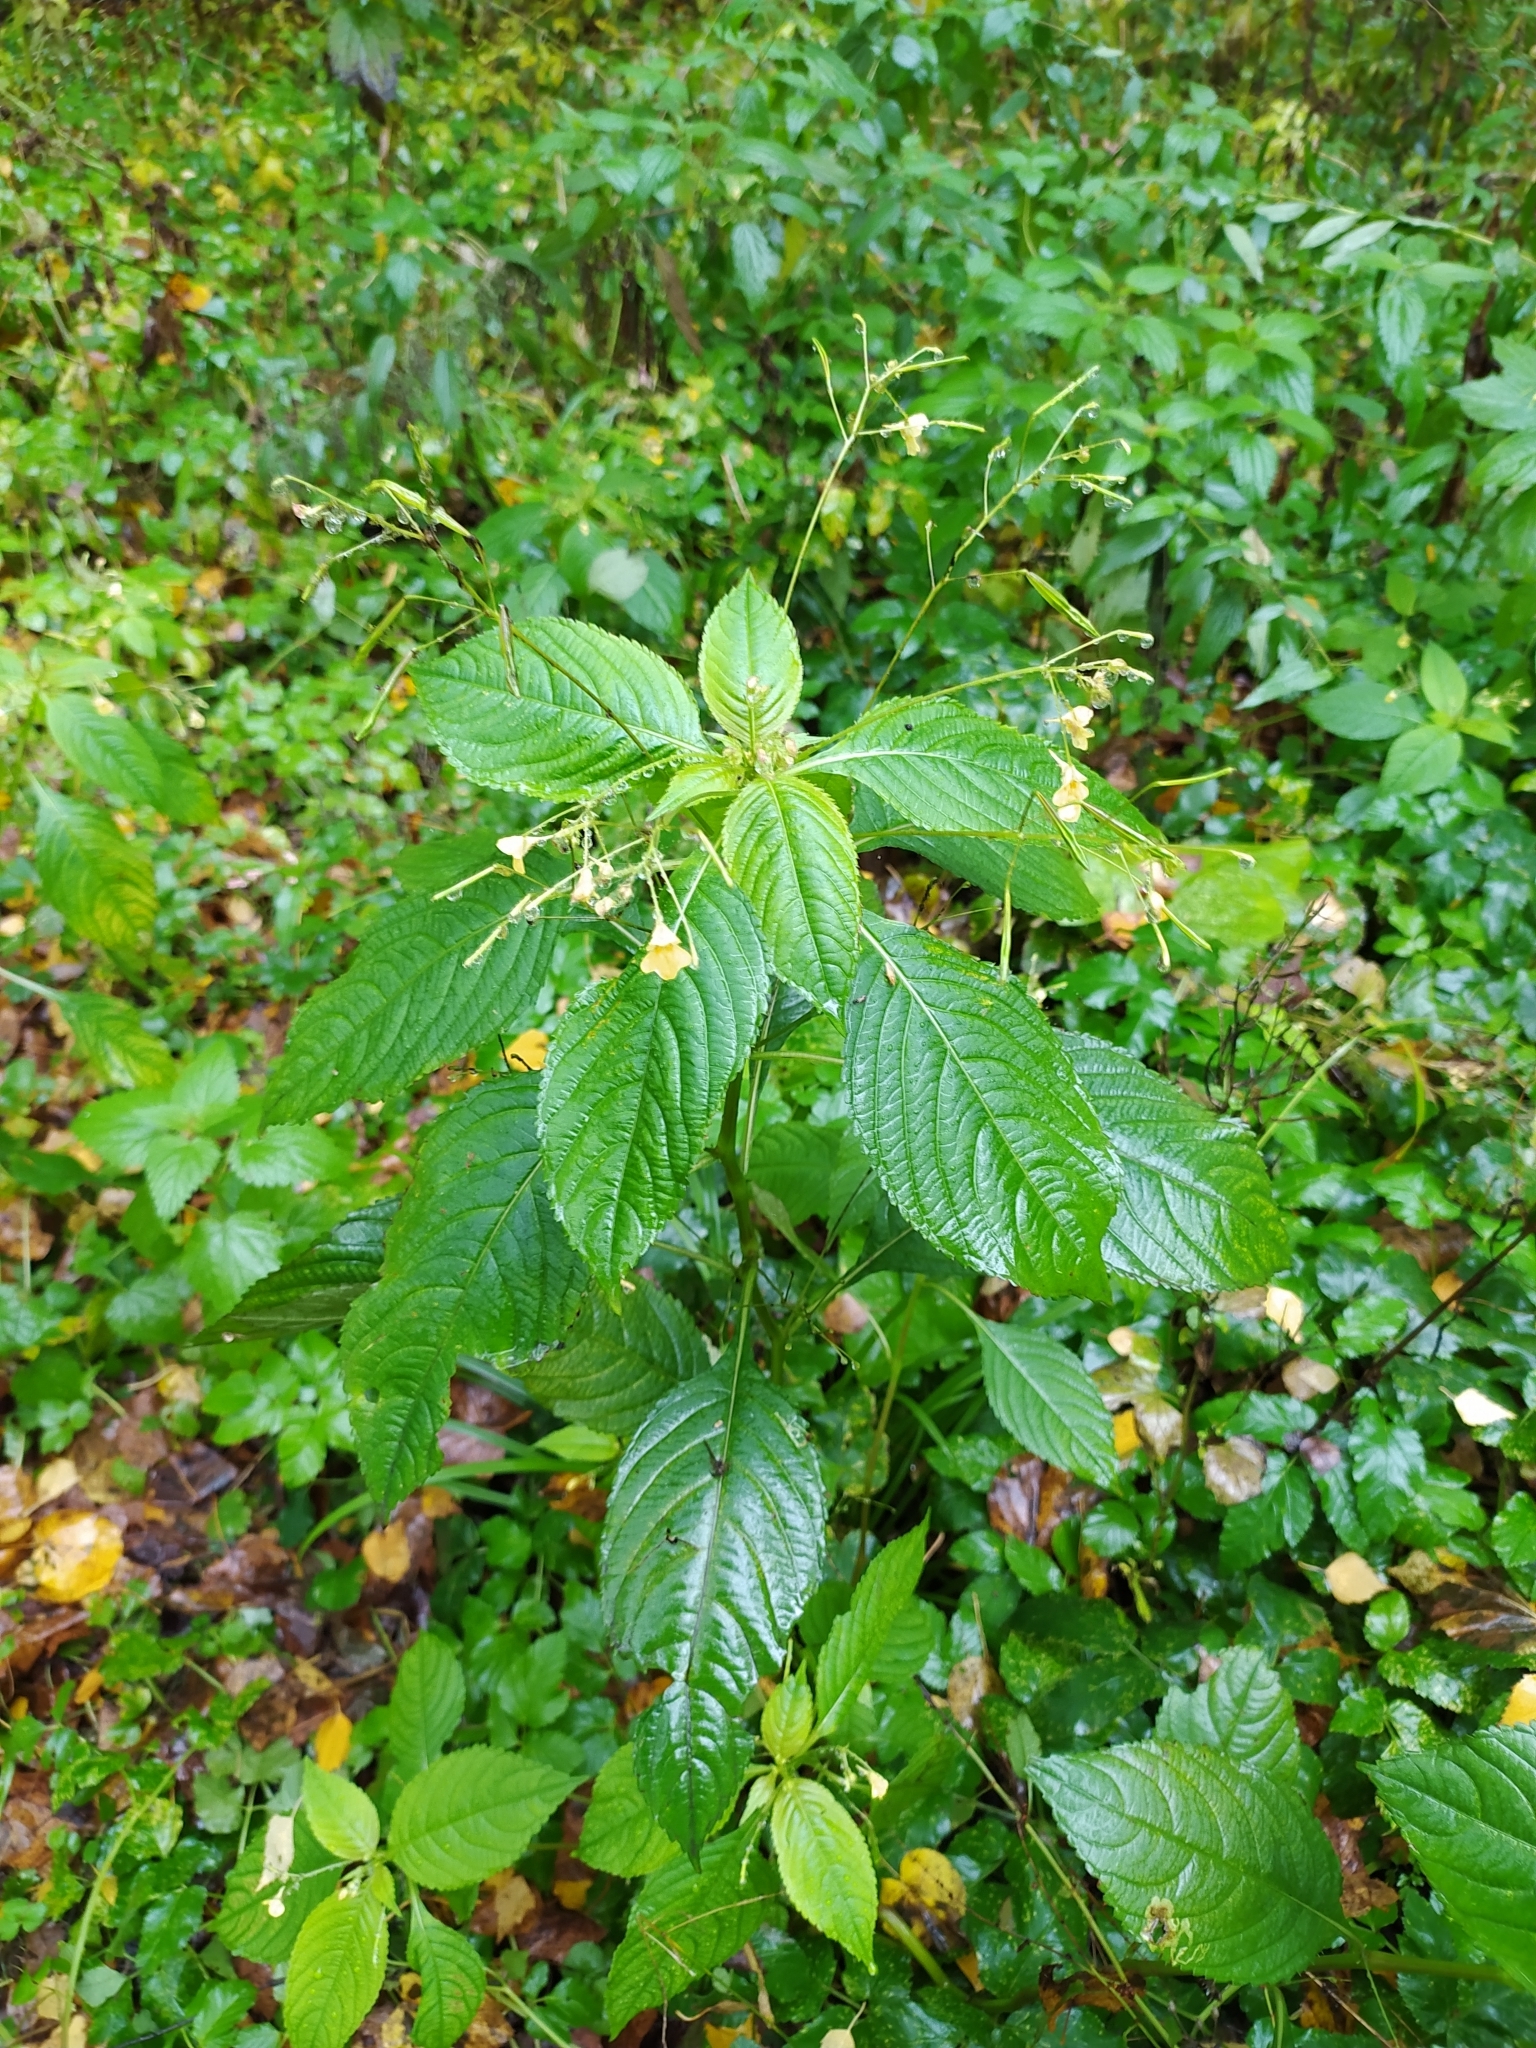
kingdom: Plantae
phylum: Tracheophyta
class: Magnoliopsida
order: Ericales
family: Balsaminaceae
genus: Impatiens
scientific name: Impatiens parviflora
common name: Small balsam
